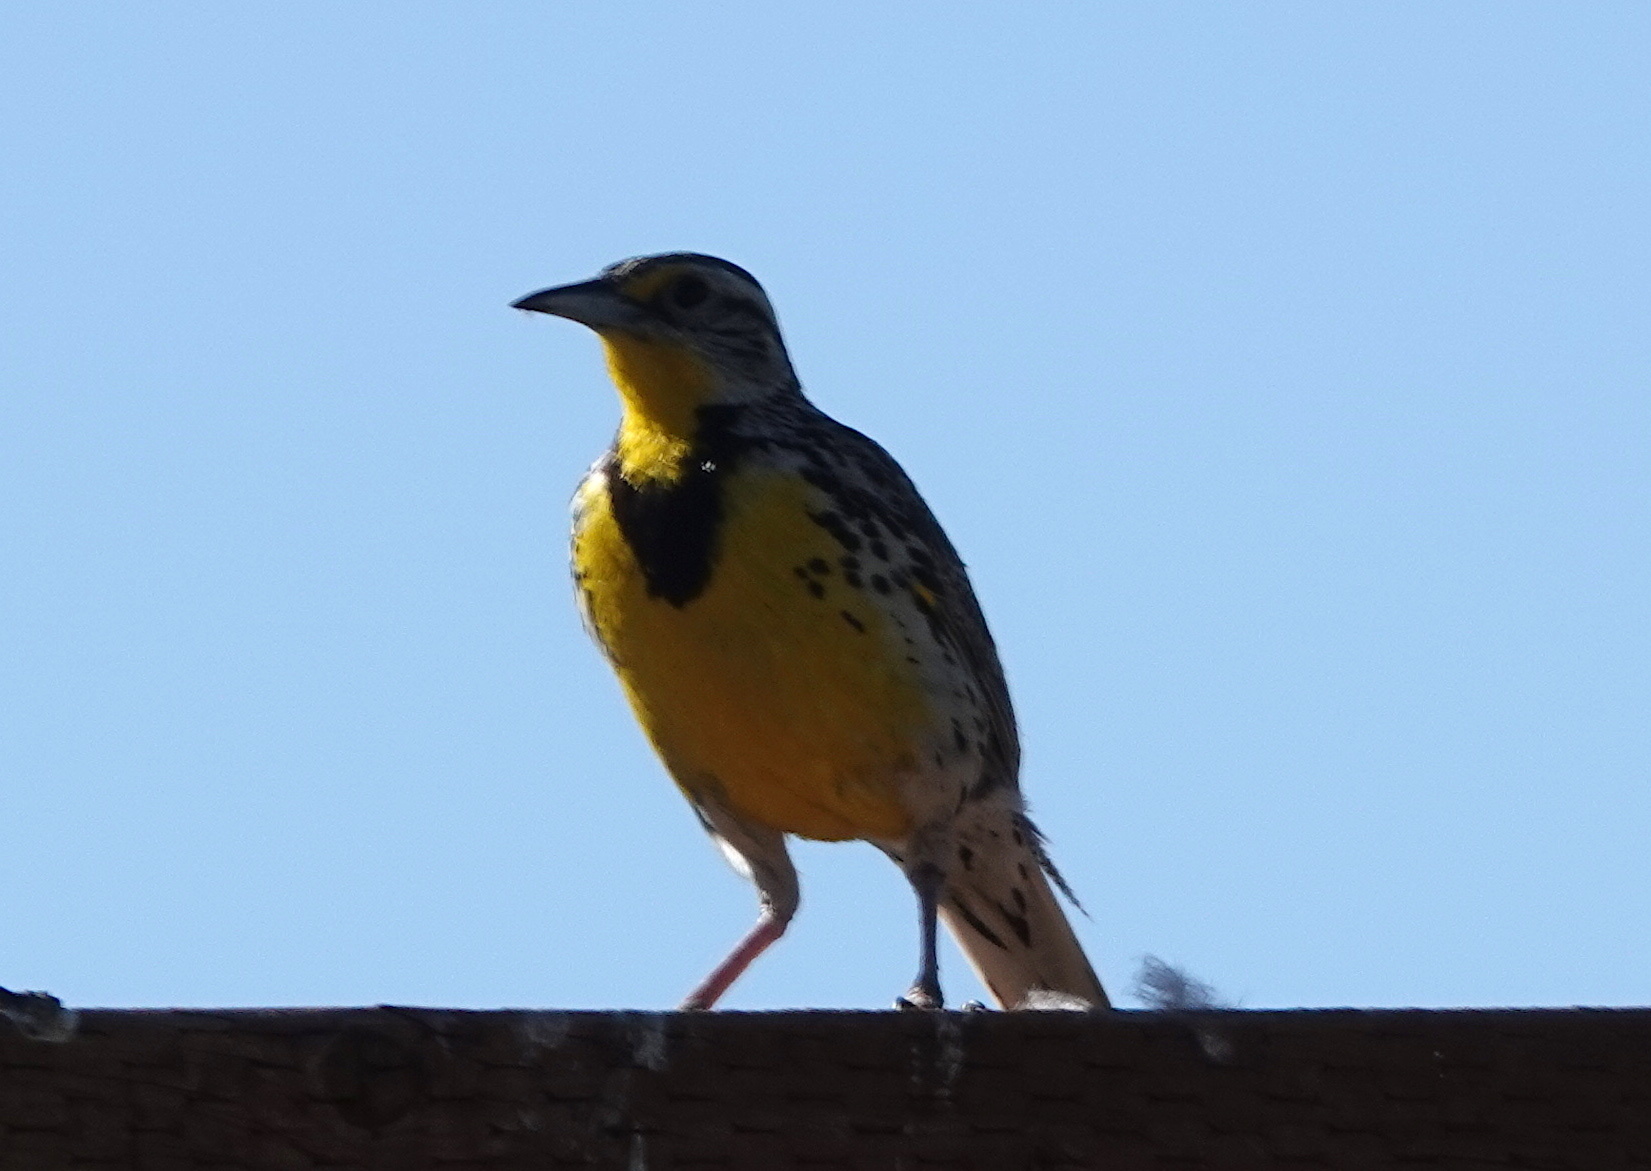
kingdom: Animalia
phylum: Chordata
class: Aves
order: Passeriformes
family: Icteridae
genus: Sturnella
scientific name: Sturnella neglecta
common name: Western meadowlark
